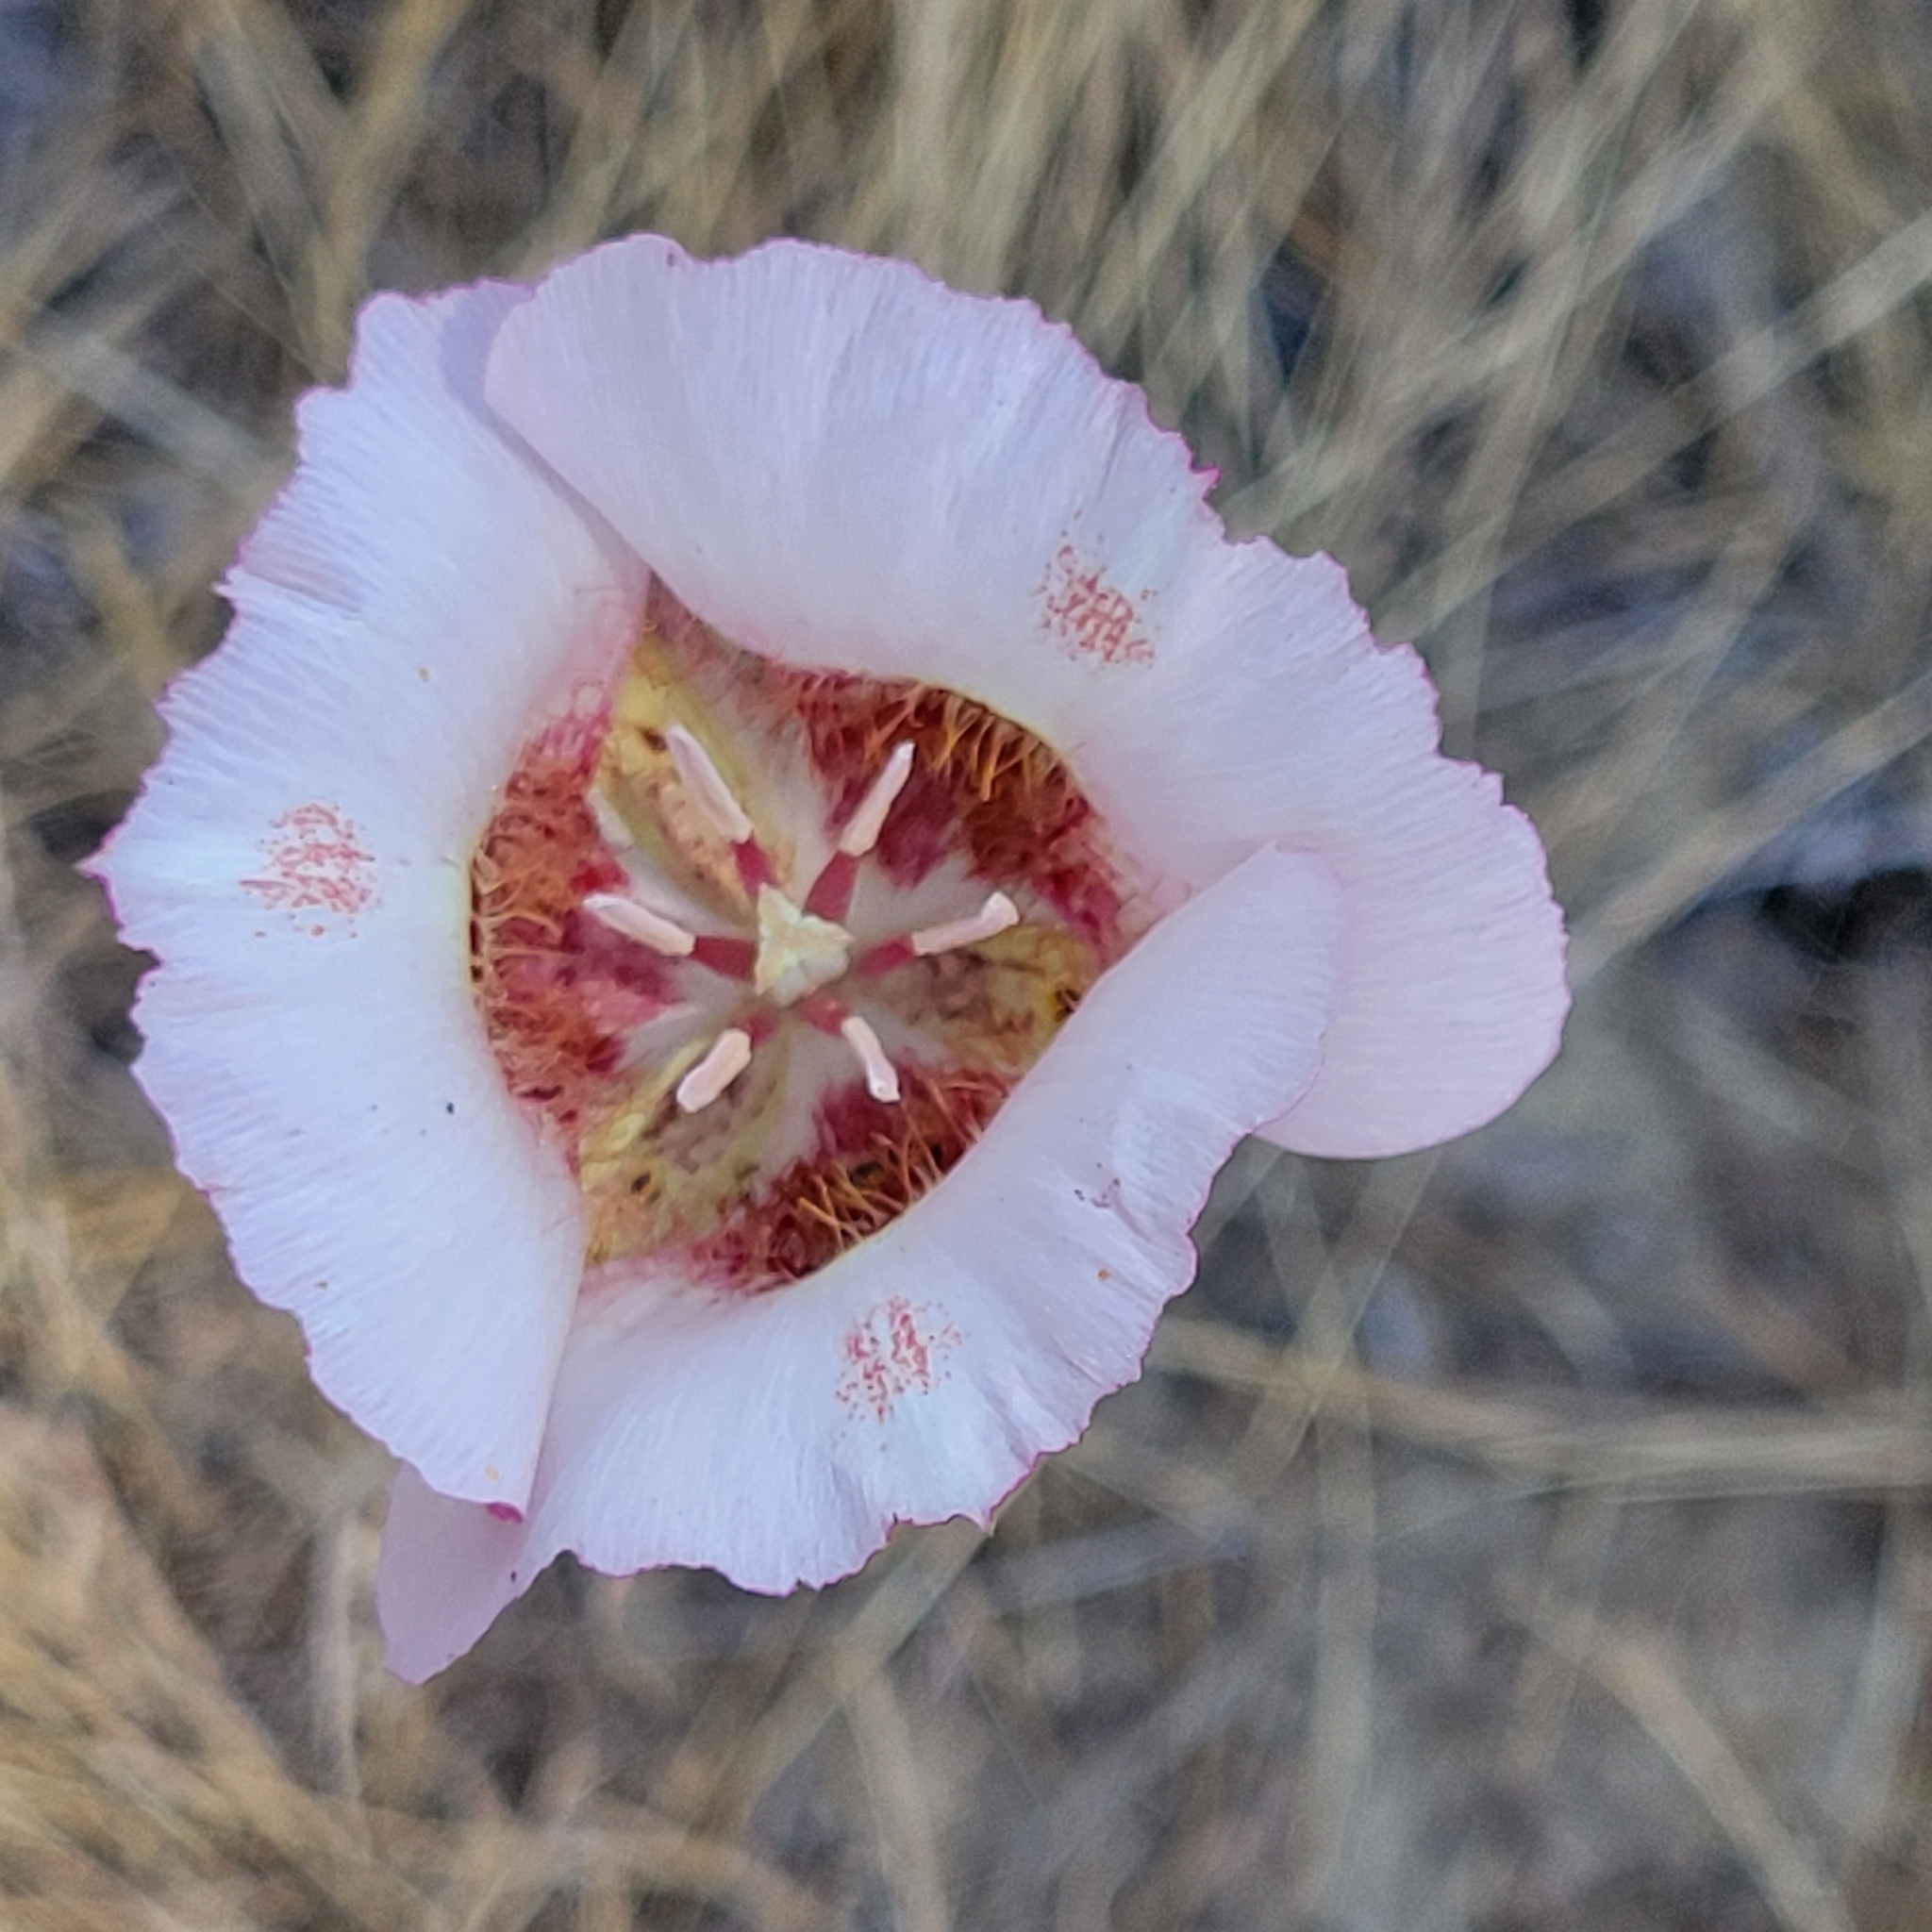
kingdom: Plantae
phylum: Tracheophyta
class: Liliopsida
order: Liliales
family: Liliaceae
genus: Calochortus
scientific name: Calochortus venustus
